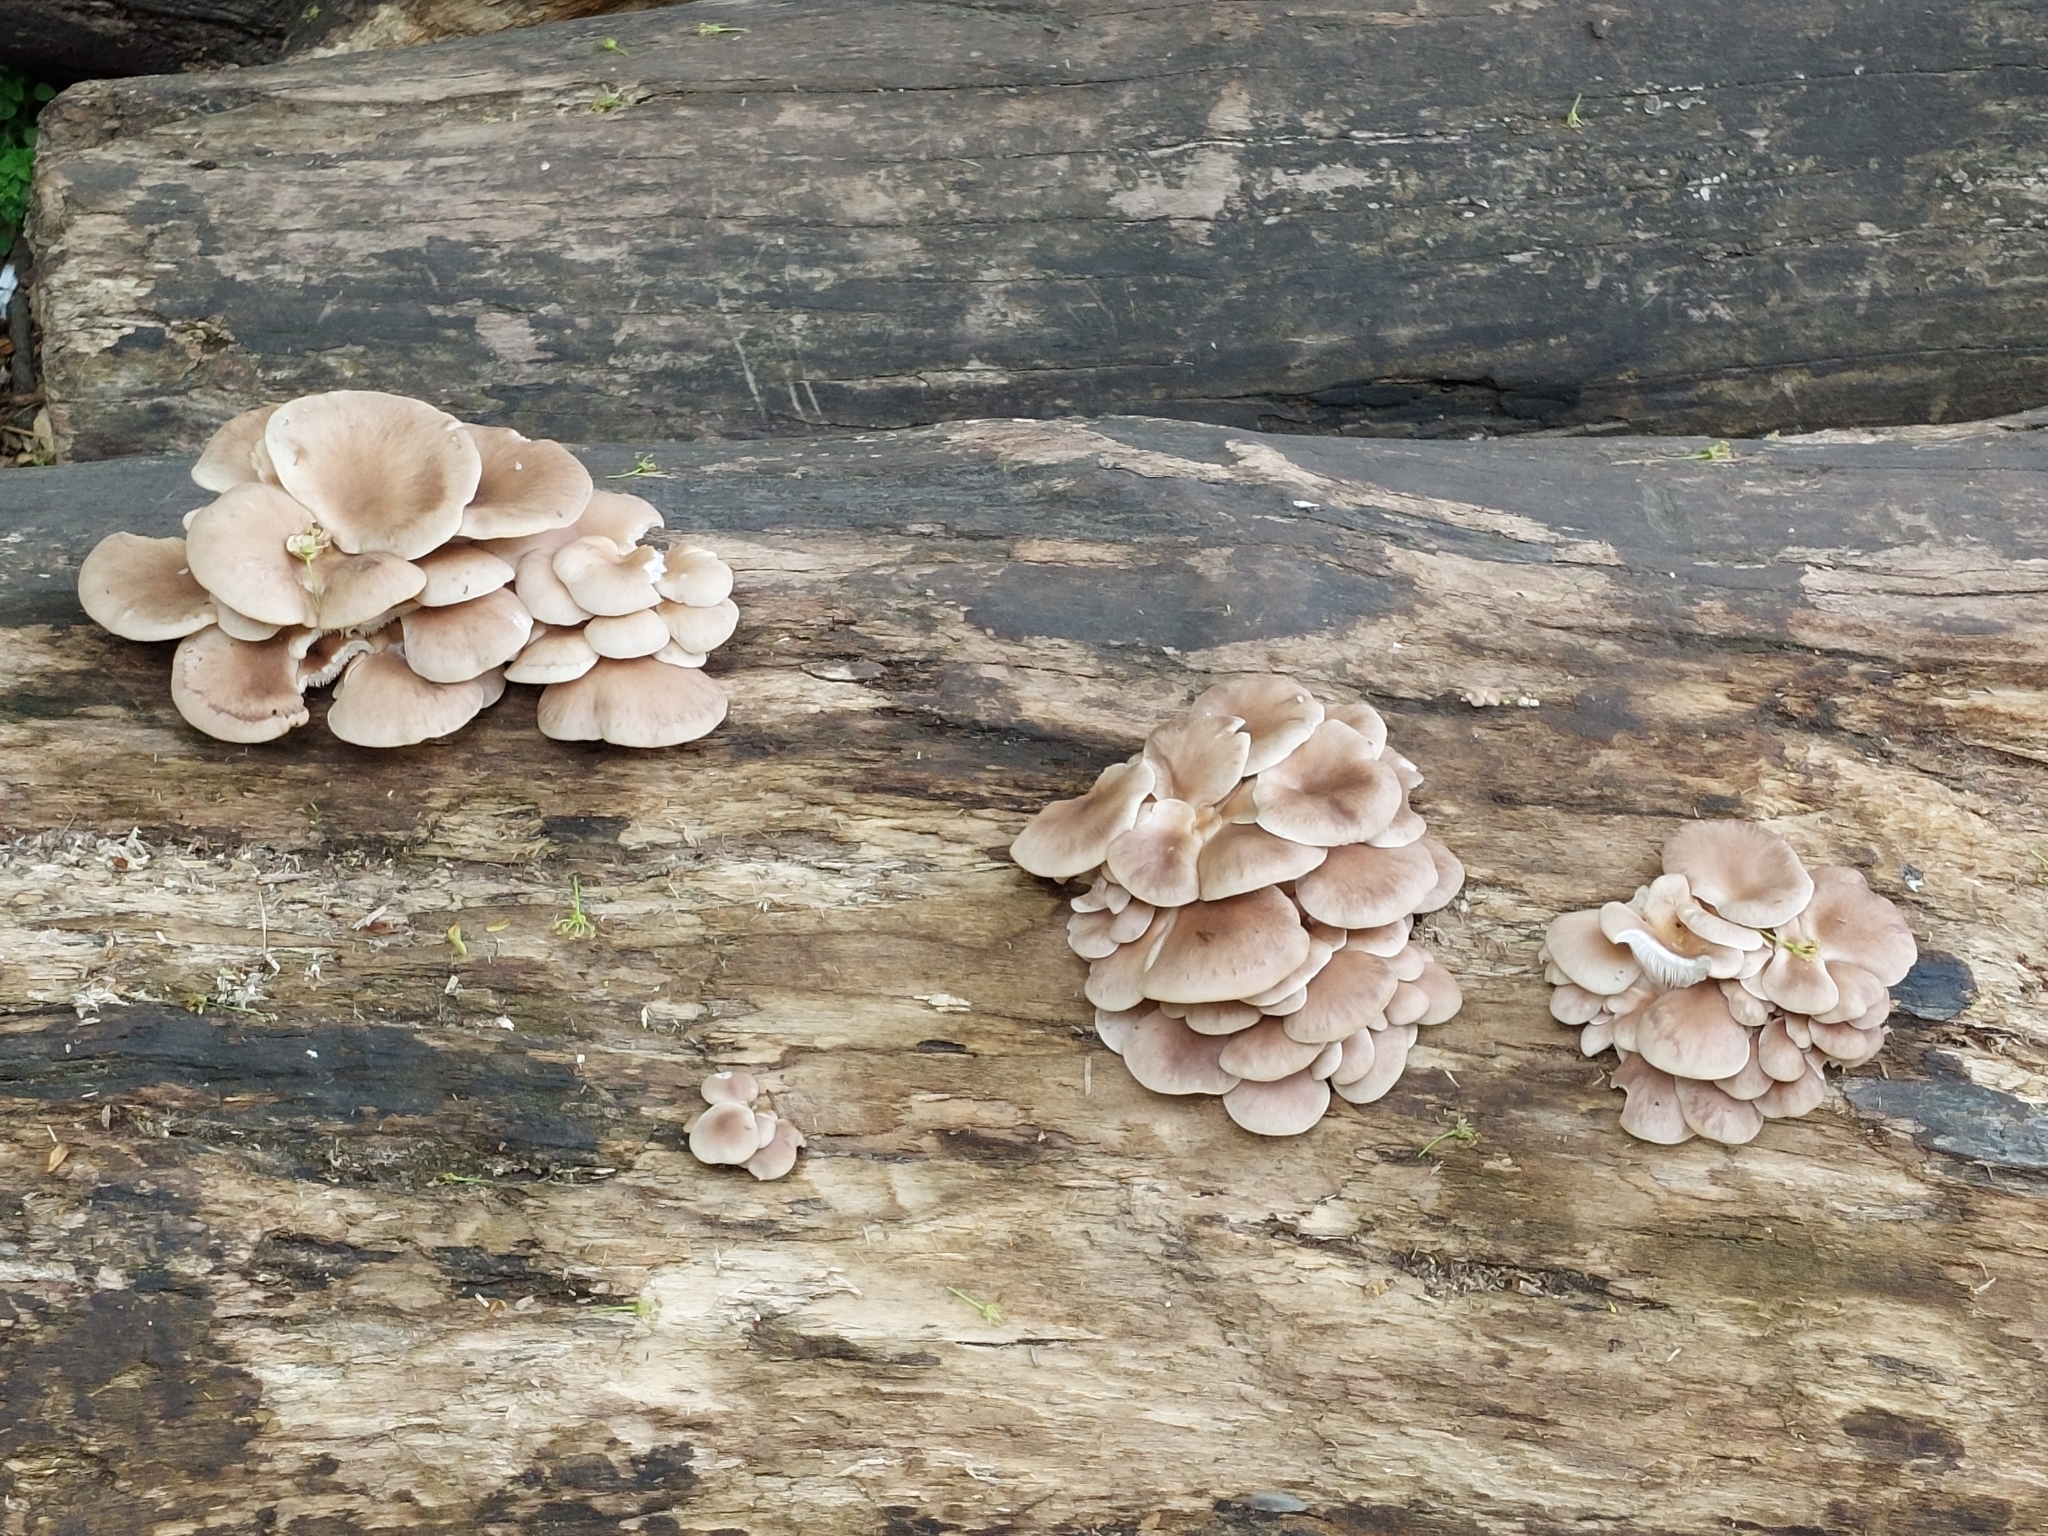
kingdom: Fungi
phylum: Basidiomycota
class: Agaricomycetes
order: Agaricales
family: Pleurotaceae
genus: Pleurotus
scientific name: Pleurotus ostreatus
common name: Oyster mushroom
